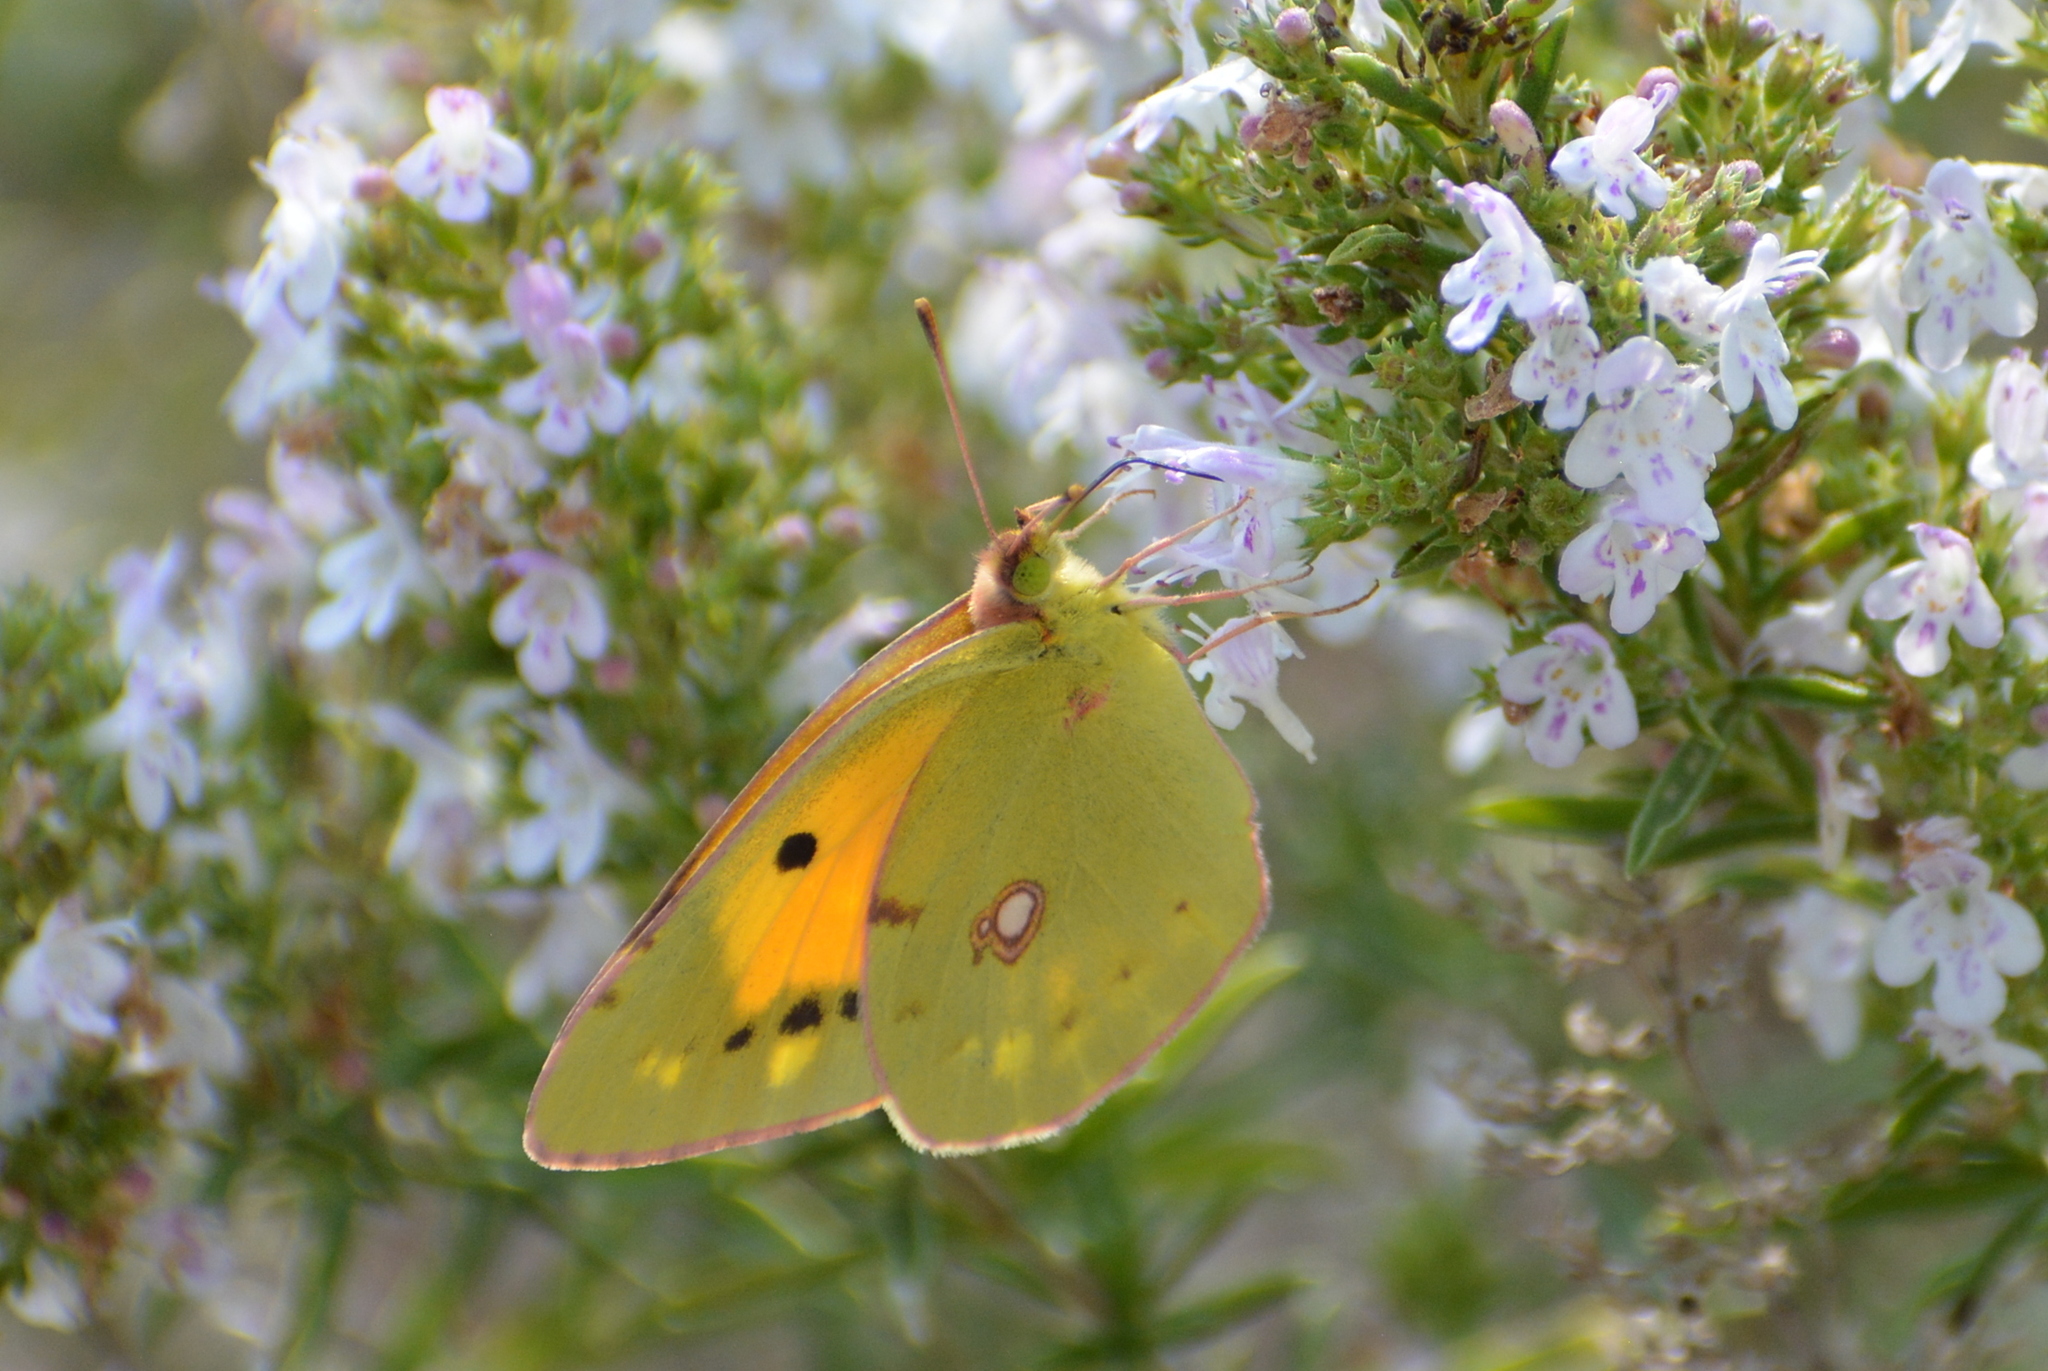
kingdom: Animalia
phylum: Arthropoda
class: Insecta
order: Lepidoptera
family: Pieridae
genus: Colias
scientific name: Colias croceus
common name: Clouded yellow
